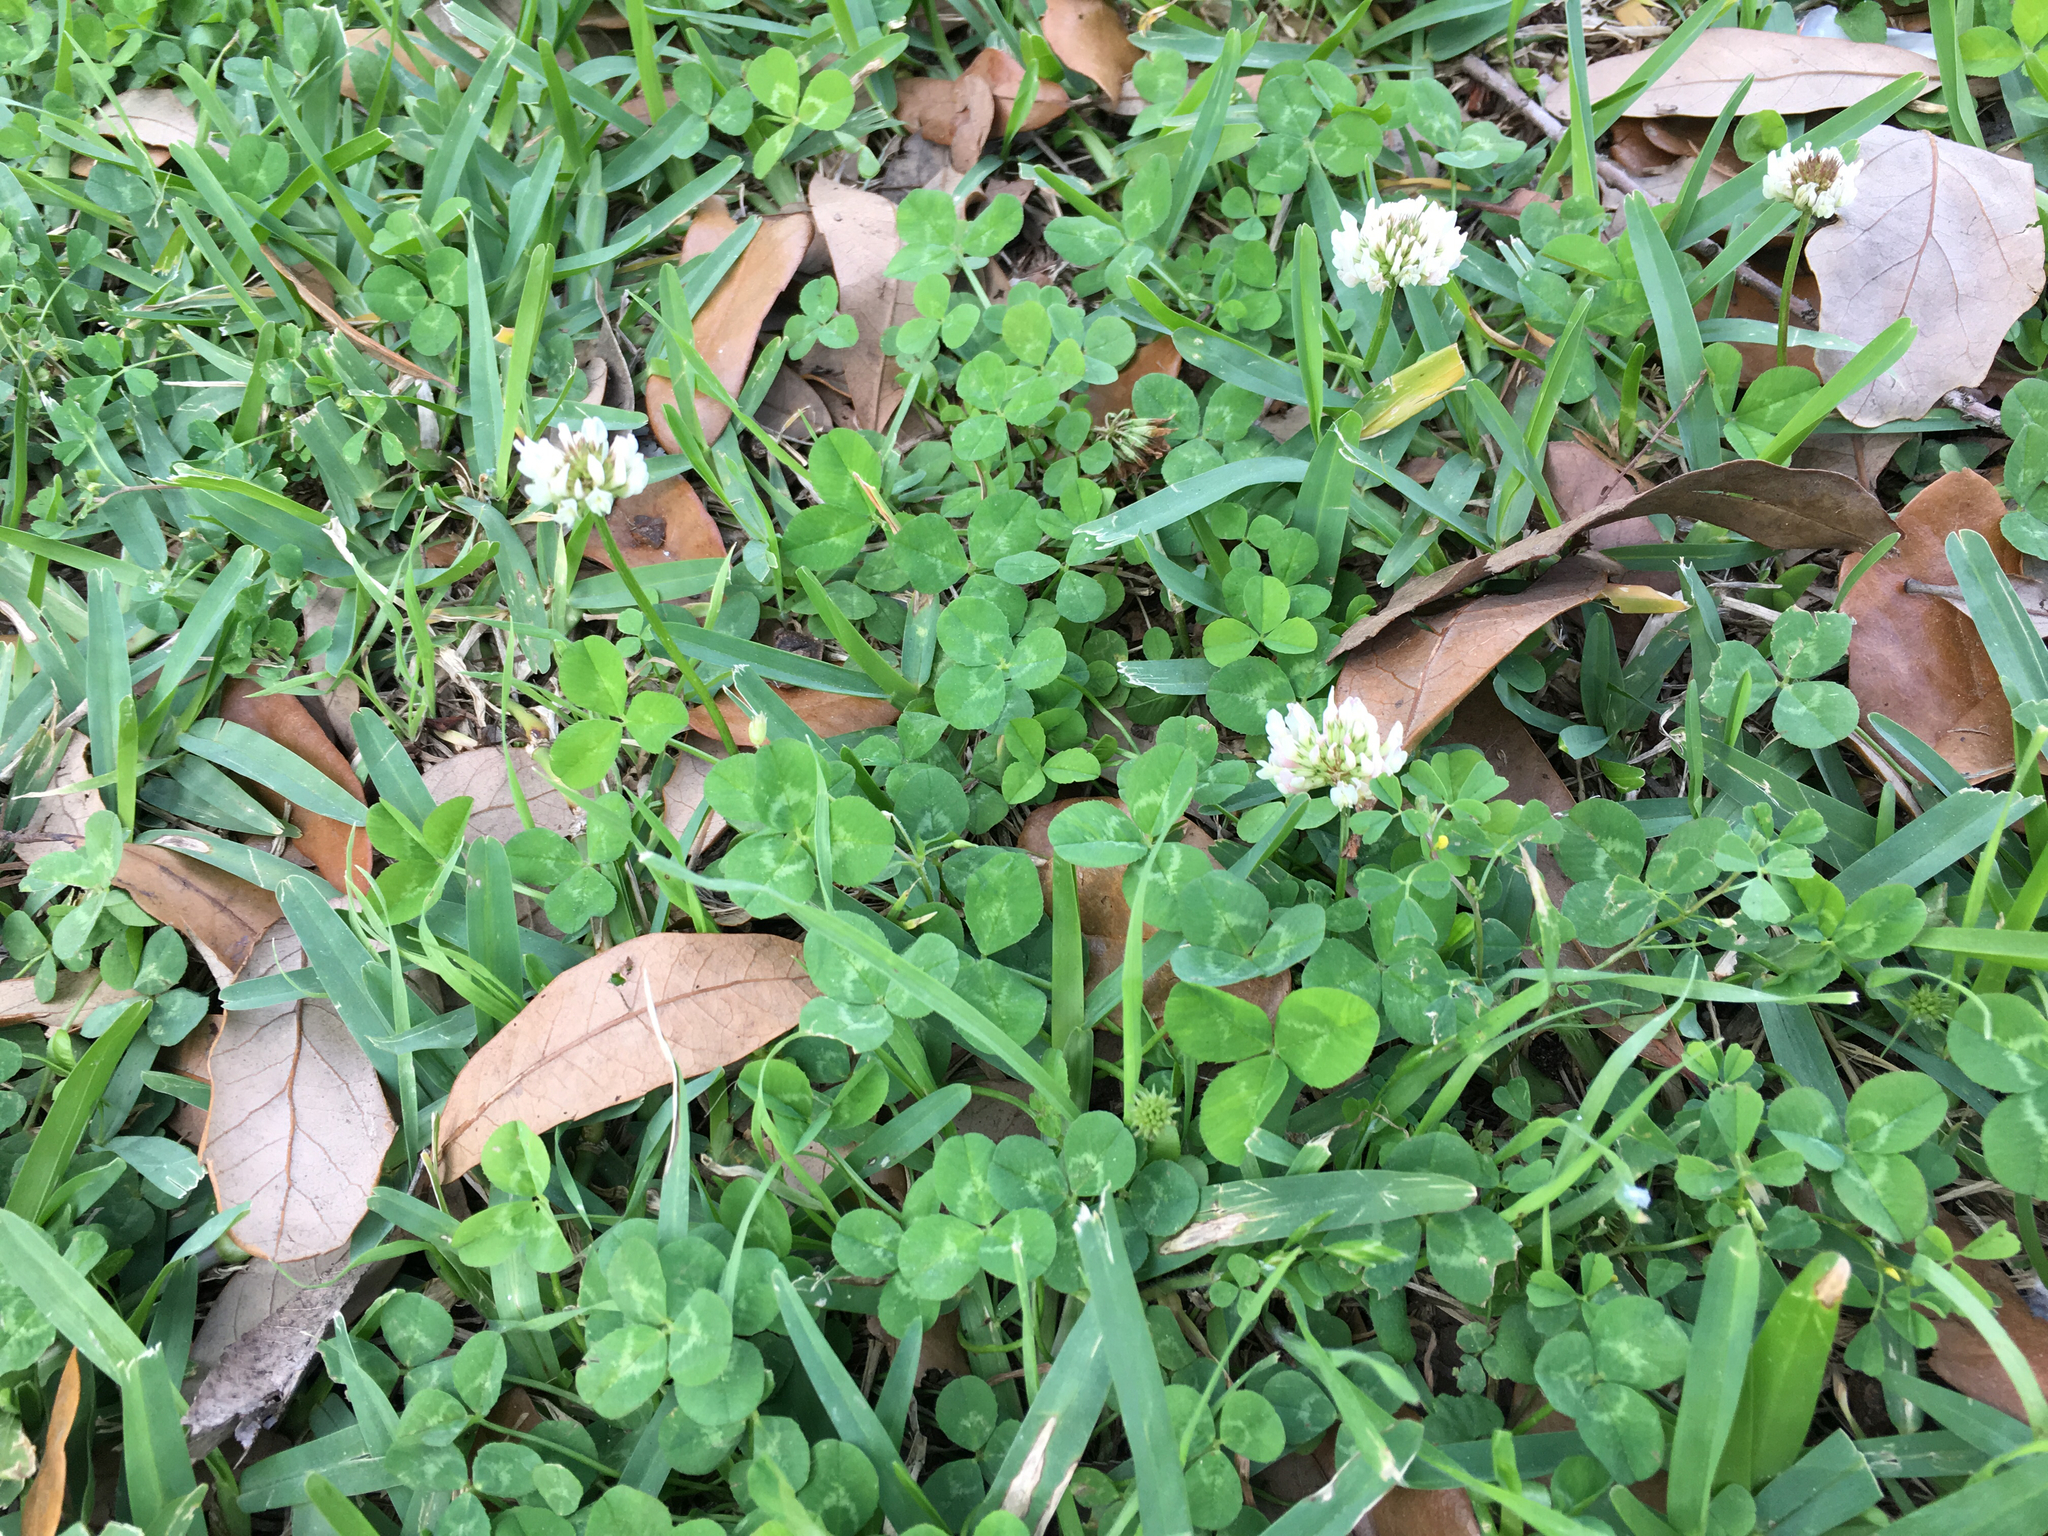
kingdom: Plantae
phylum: Tracheophyta
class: Magnoliopsida
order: Fabales
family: Fabaceae
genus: Trifolium
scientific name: Trifolium repens
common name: White clover
